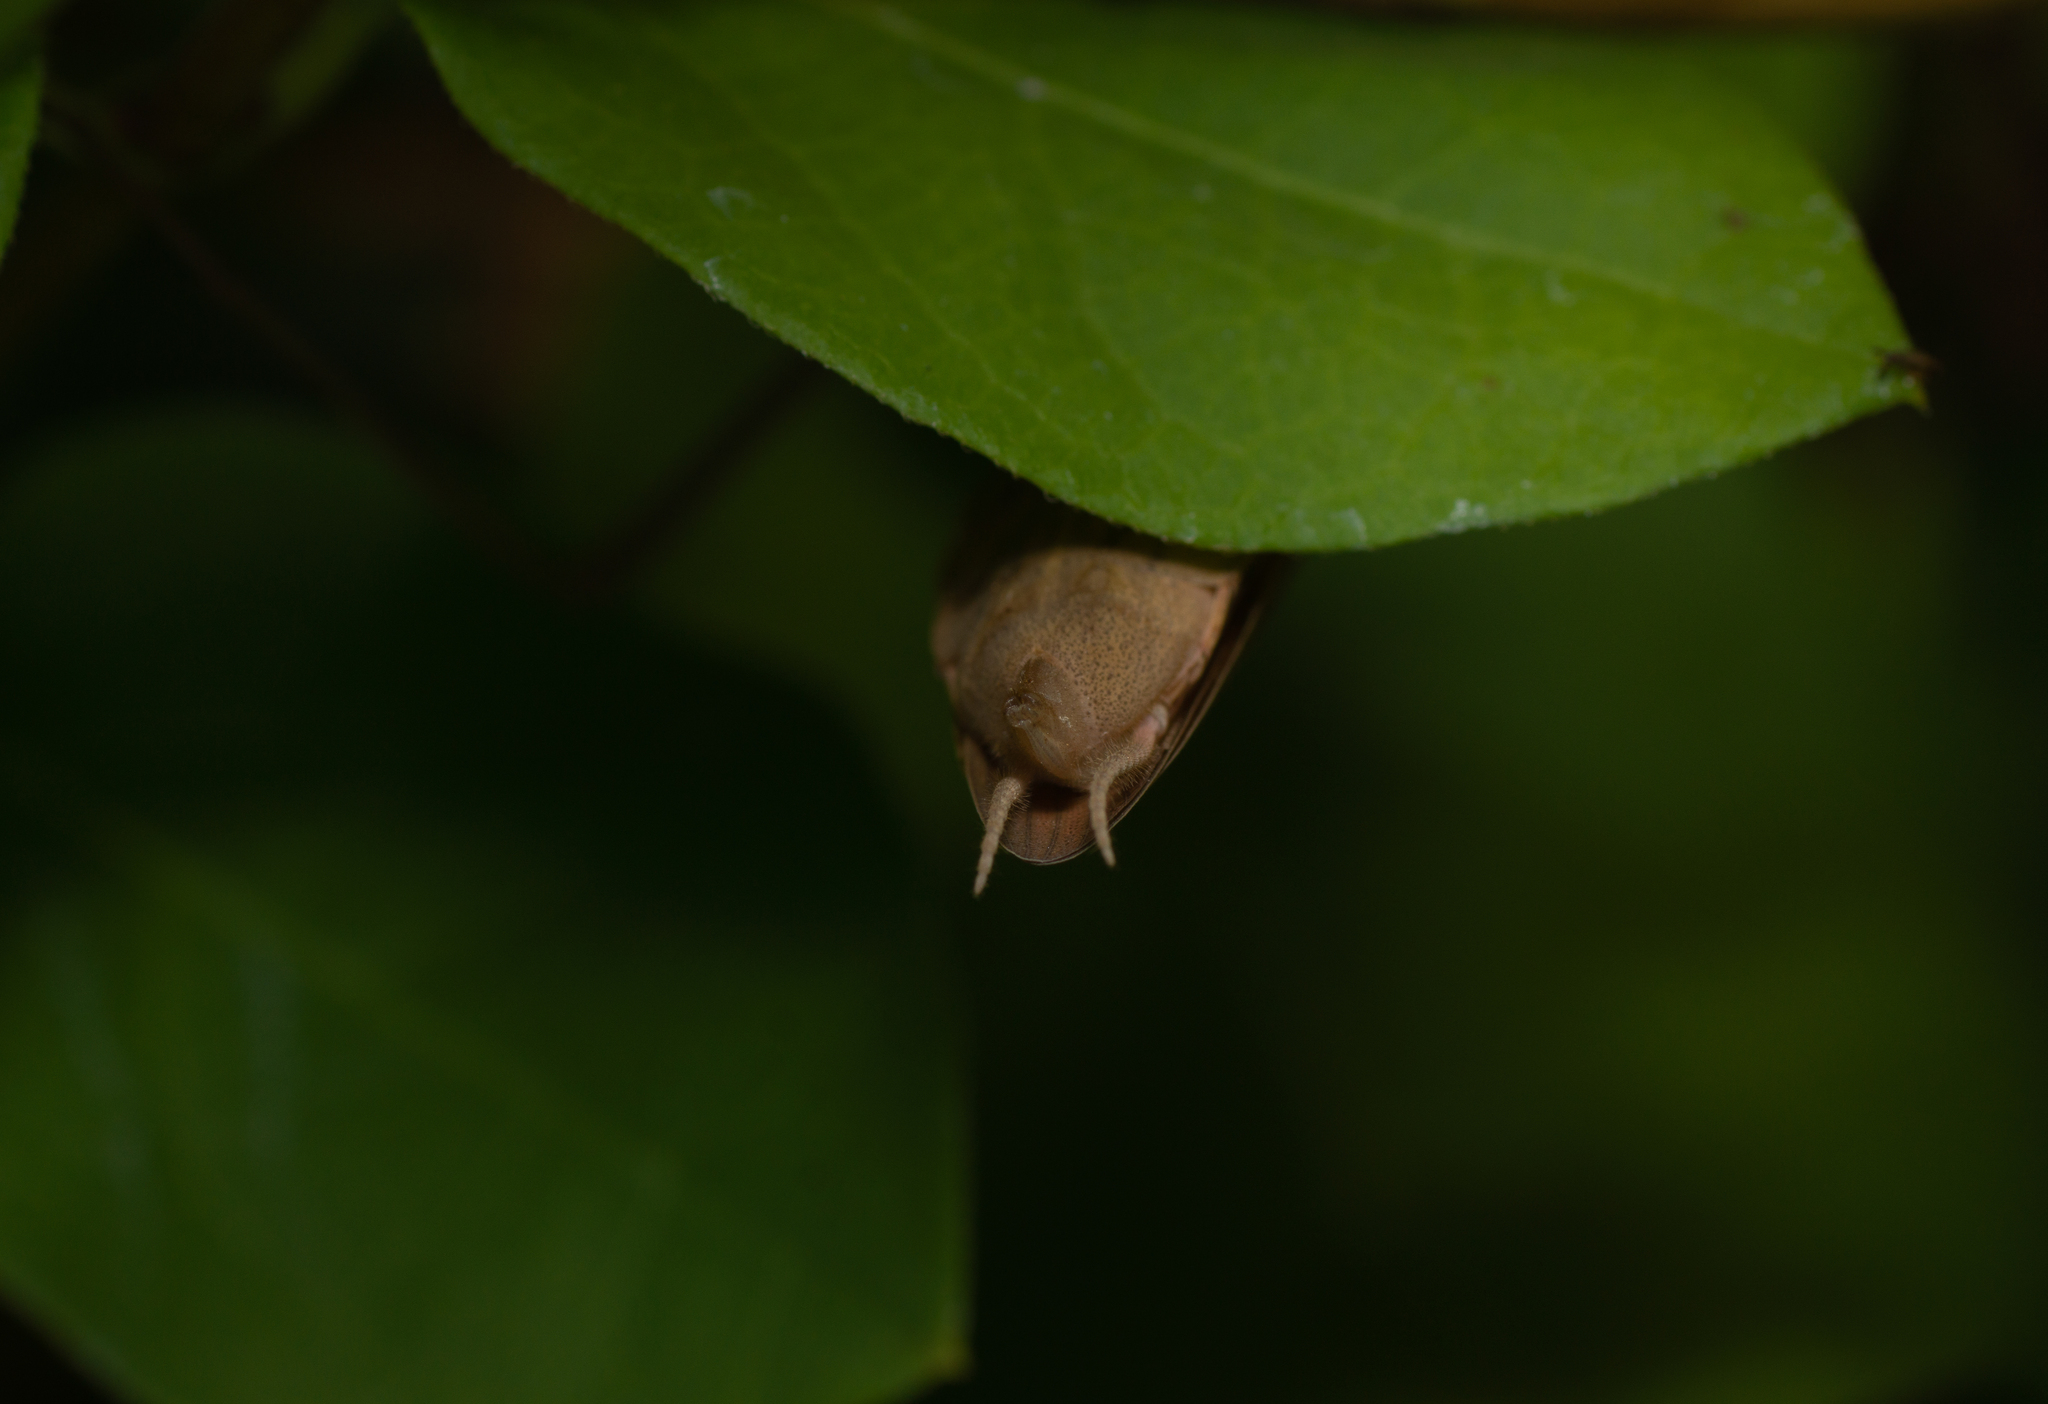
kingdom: Animalia
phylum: Arthropoda
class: Insecta
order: Mantodea
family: Mantidae
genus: Mantis
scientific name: Mantis religiosa
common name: Praying mantis
